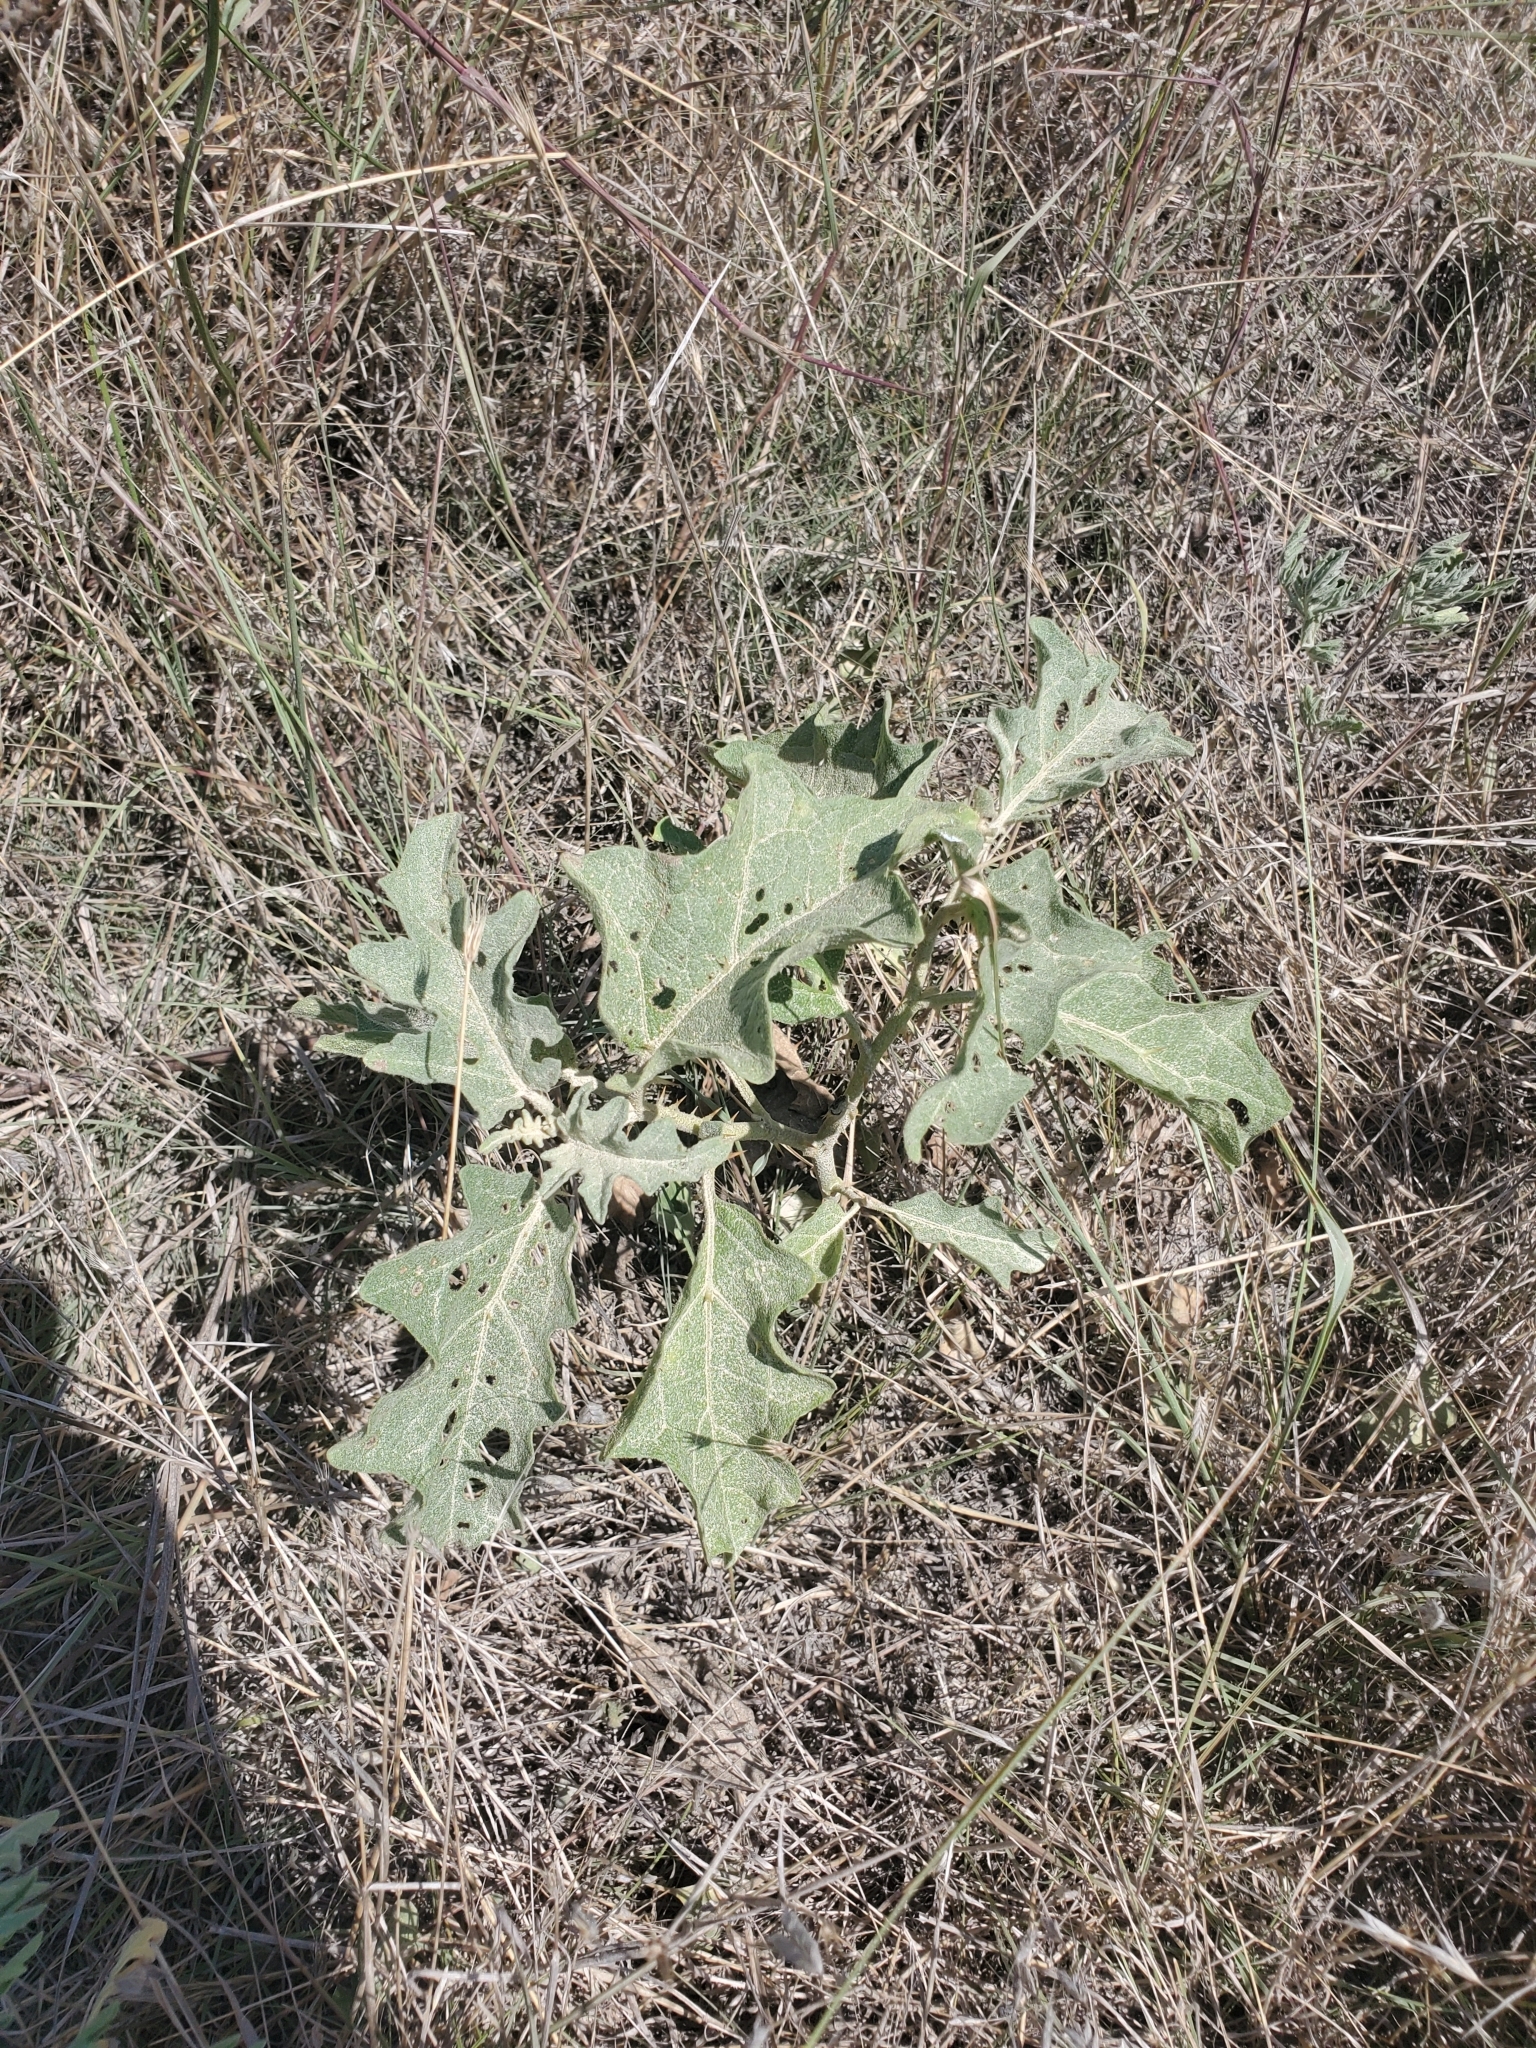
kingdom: Plantae
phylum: Tracheophyta
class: Magnoliopsida
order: Solanales
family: Solanaceae
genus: Solanum
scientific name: Solanum dimidiatum
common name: Carolina horse-nettle
